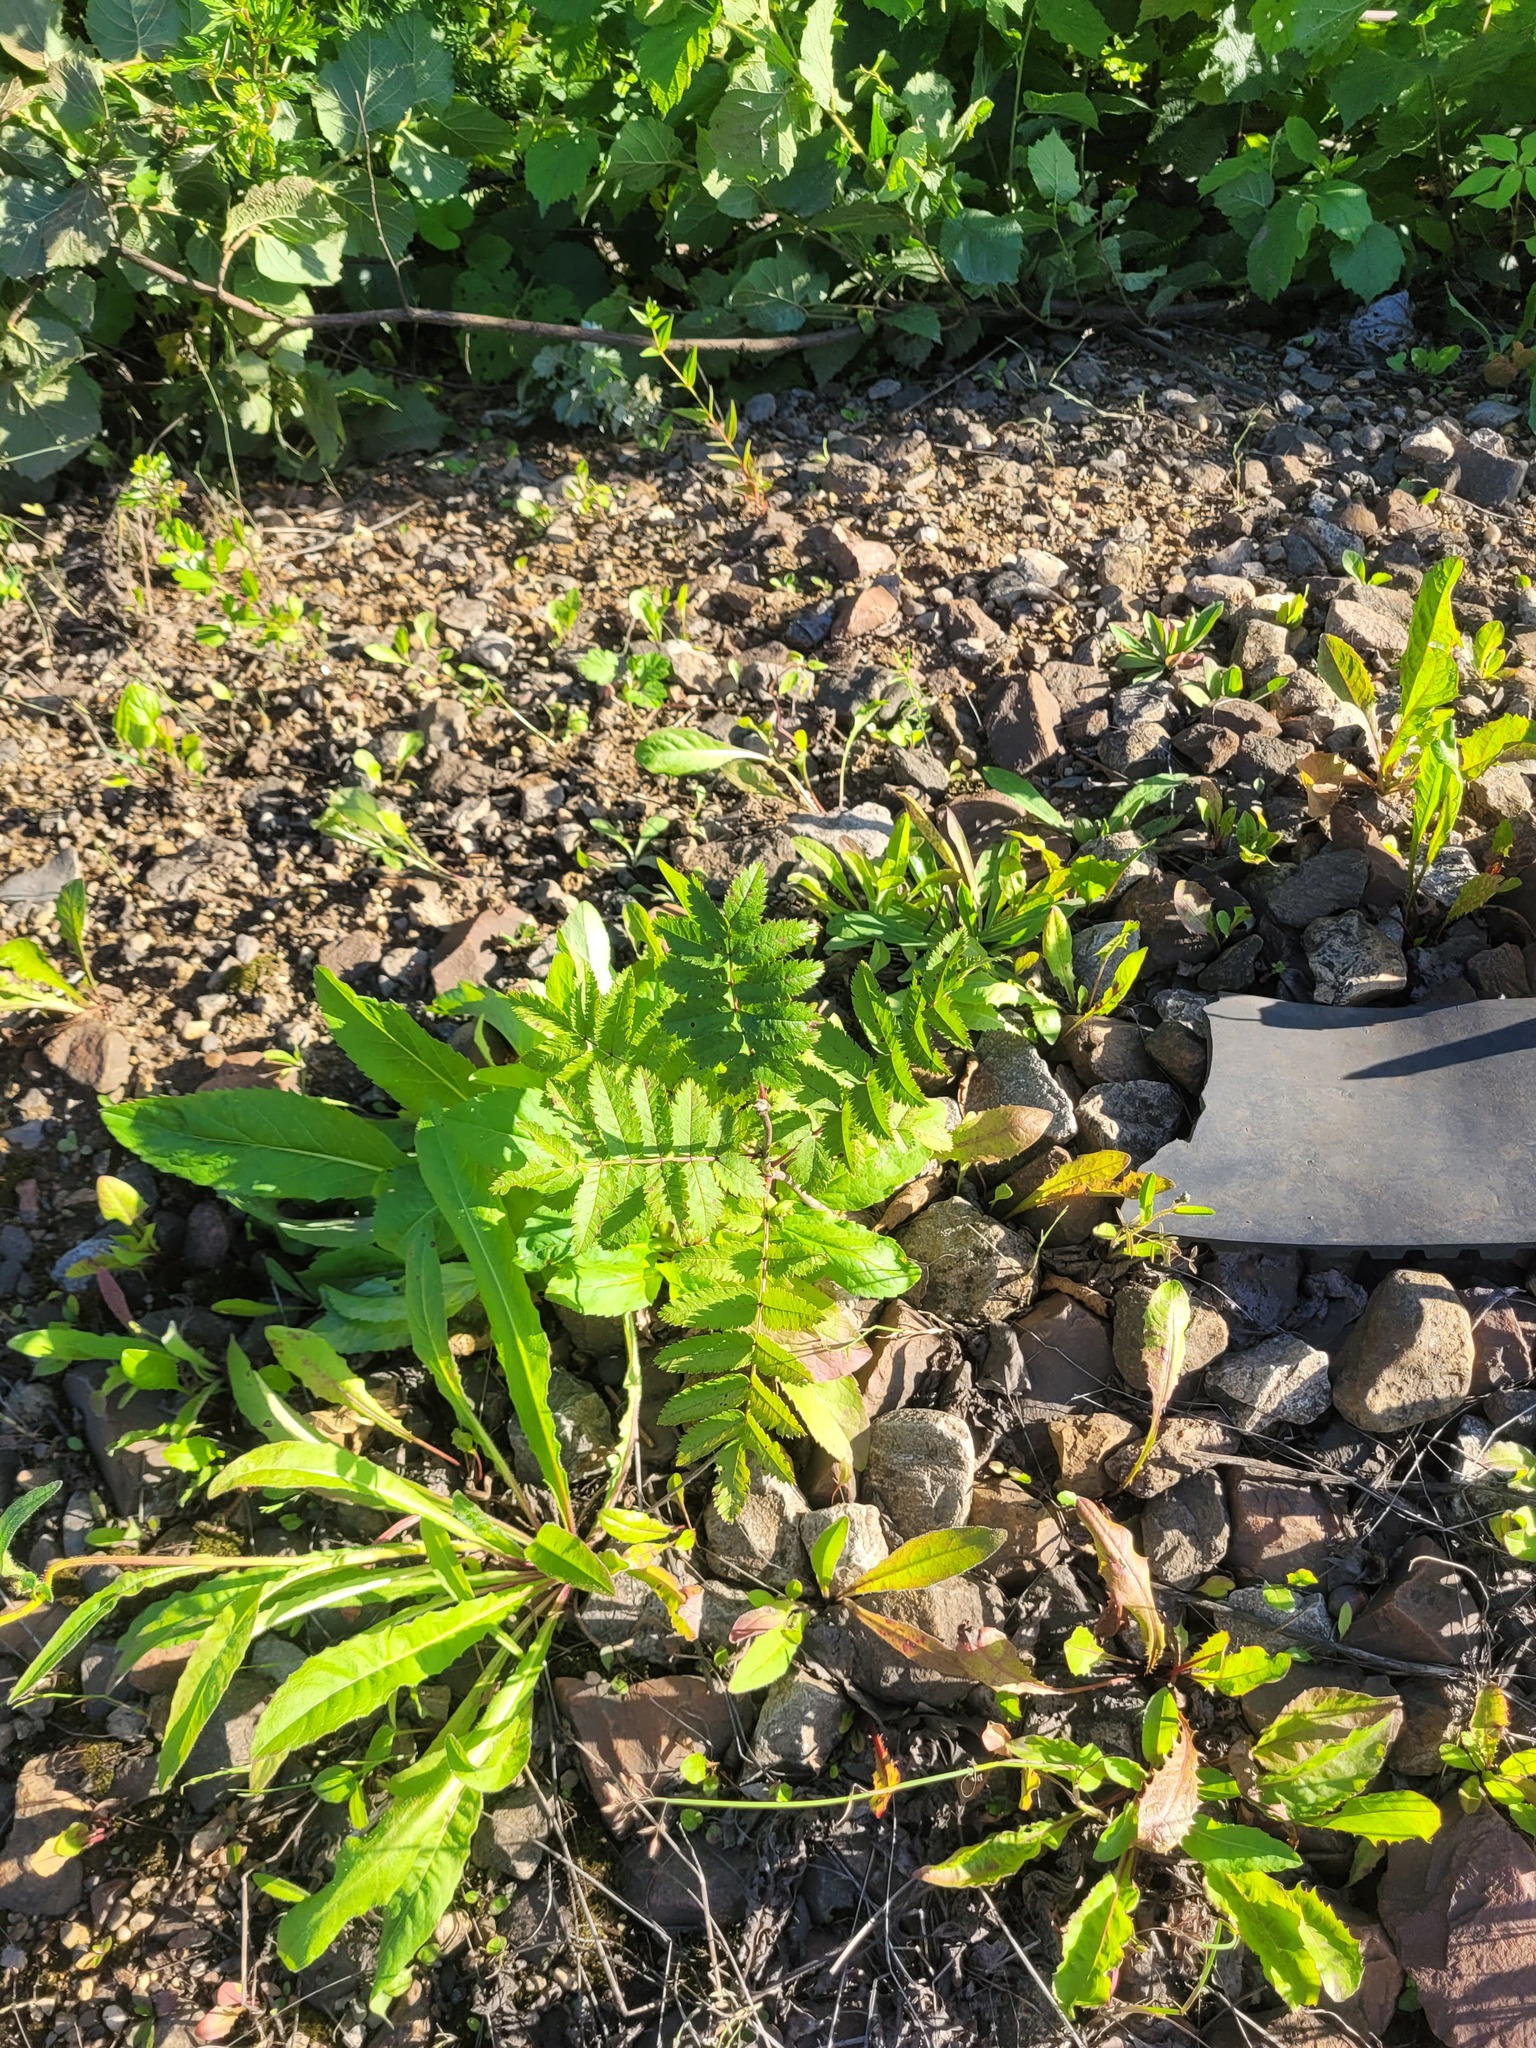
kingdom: Plantae
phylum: Tracheophyta
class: Magnoliopsida
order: Rosales
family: Rosaceae
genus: Sorbus
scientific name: Sorbus aucuparia
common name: Rowan
